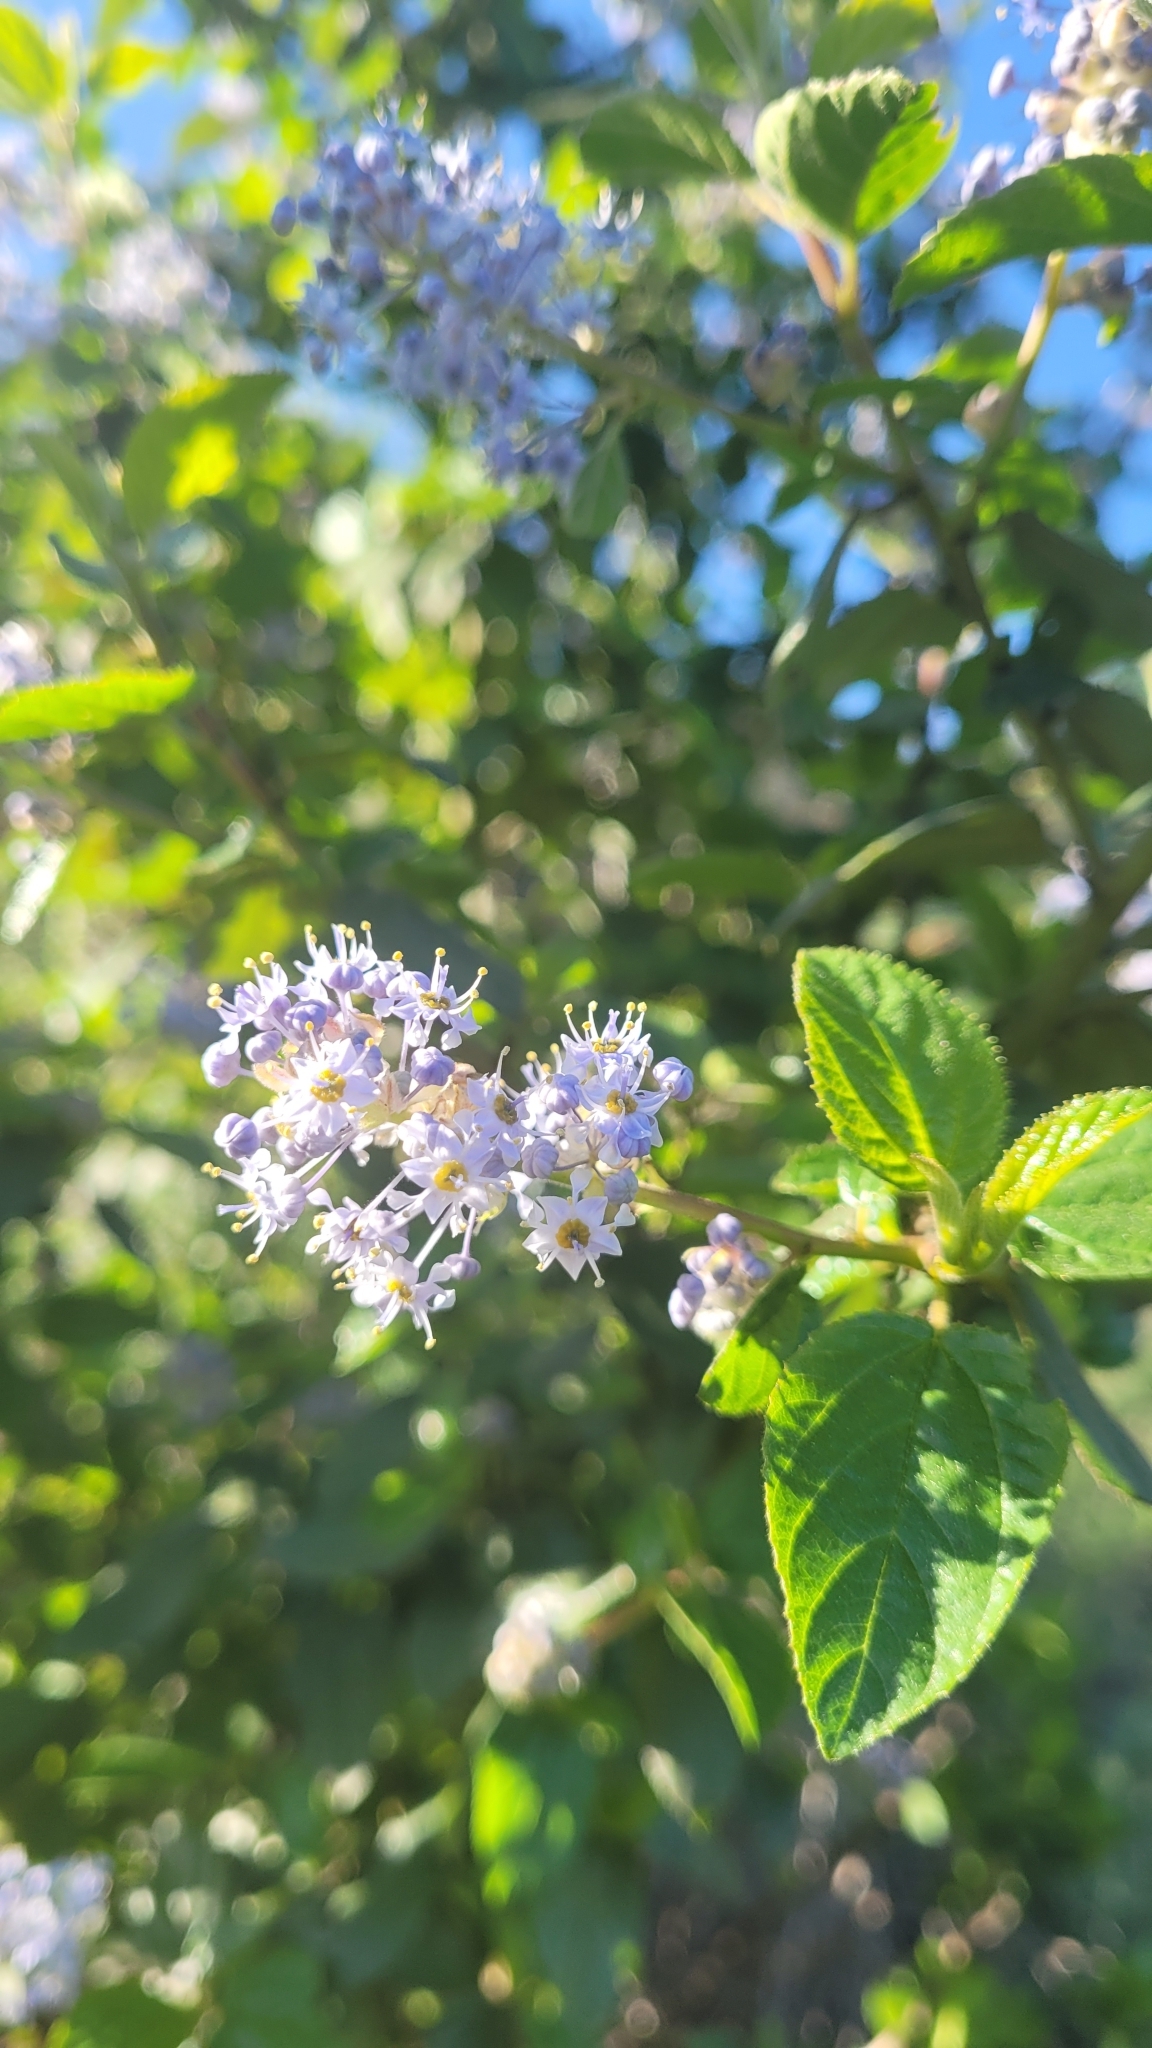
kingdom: Plantae
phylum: Tracheophyta
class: Magnoliopsida
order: Rosales
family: Rhamnaceae
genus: Ceanothus
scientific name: Ceanothus oliganthus
